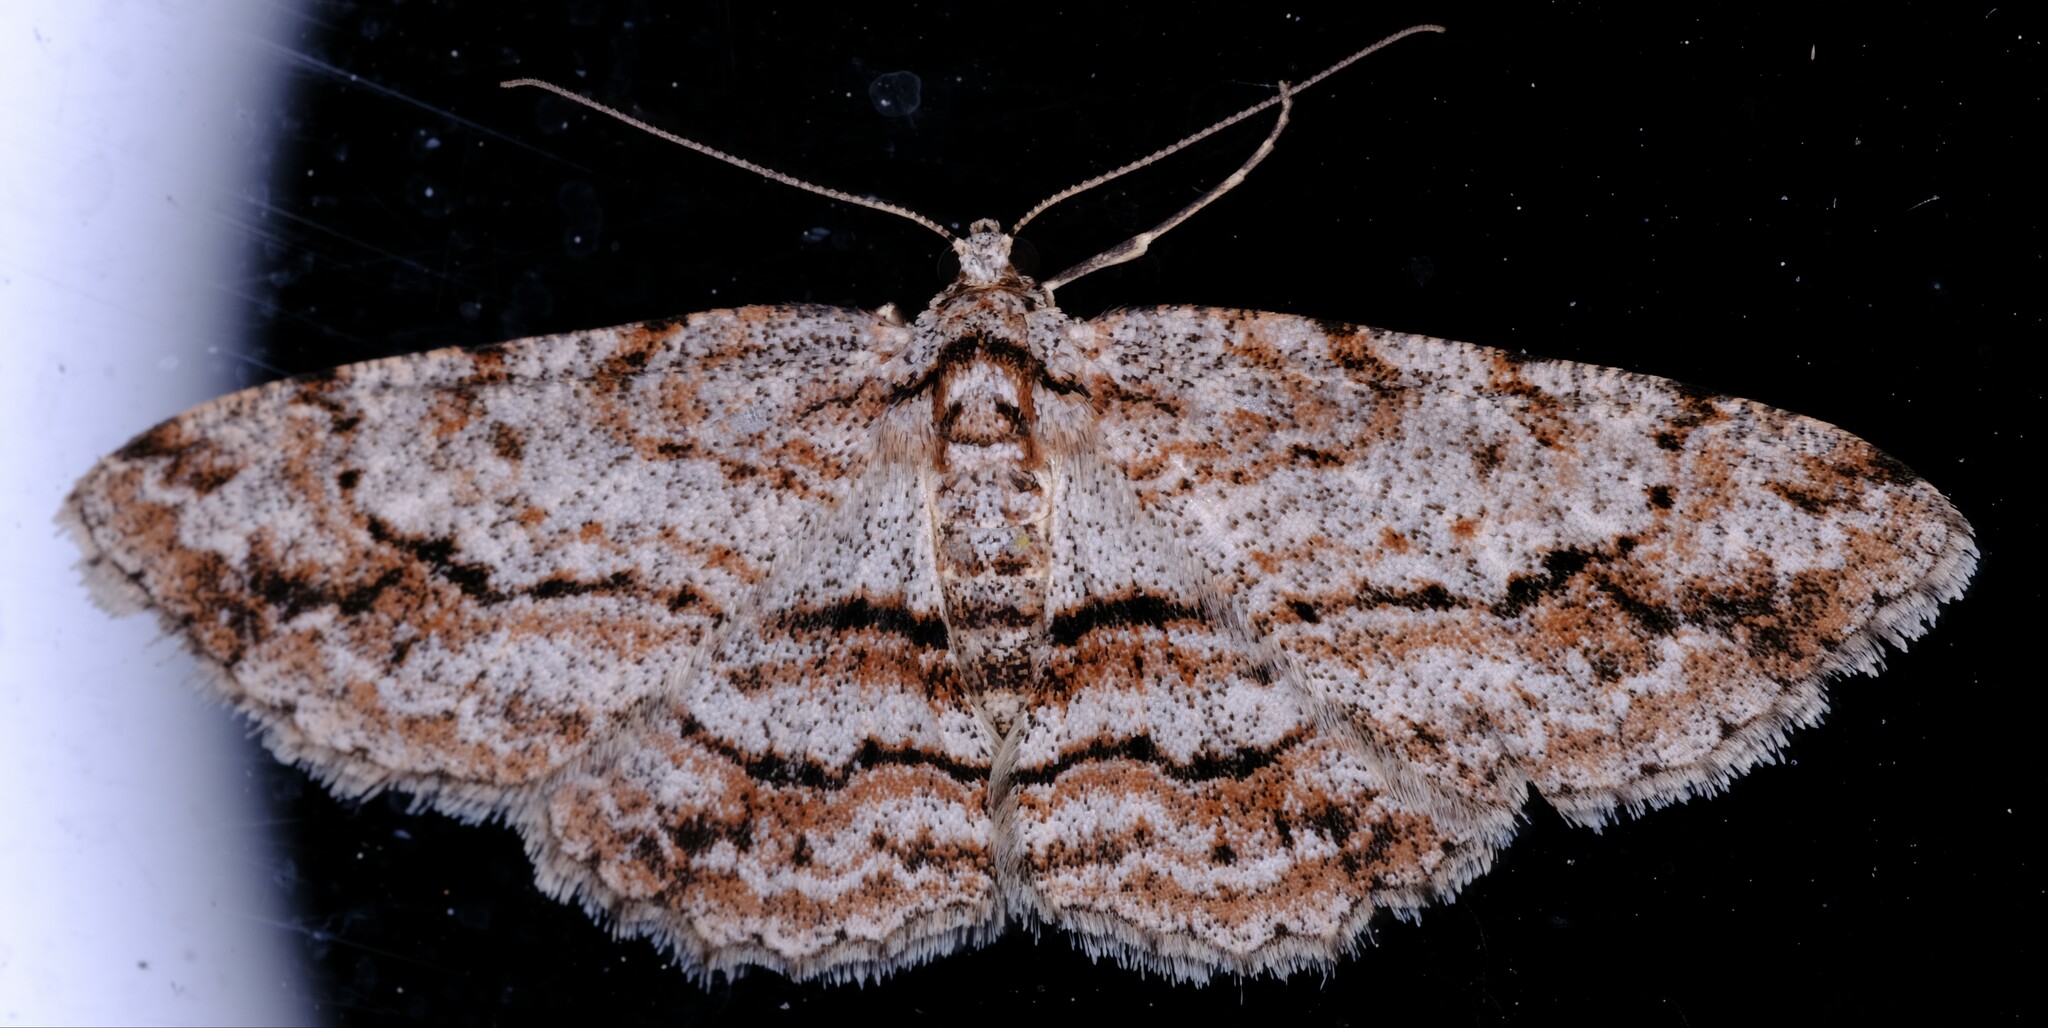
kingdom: Animalia
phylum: Arthropoda
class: Insecta
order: Lepidoptera
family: Geometridae
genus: Didymoctenia
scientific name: Didymoctenia exsuperata
